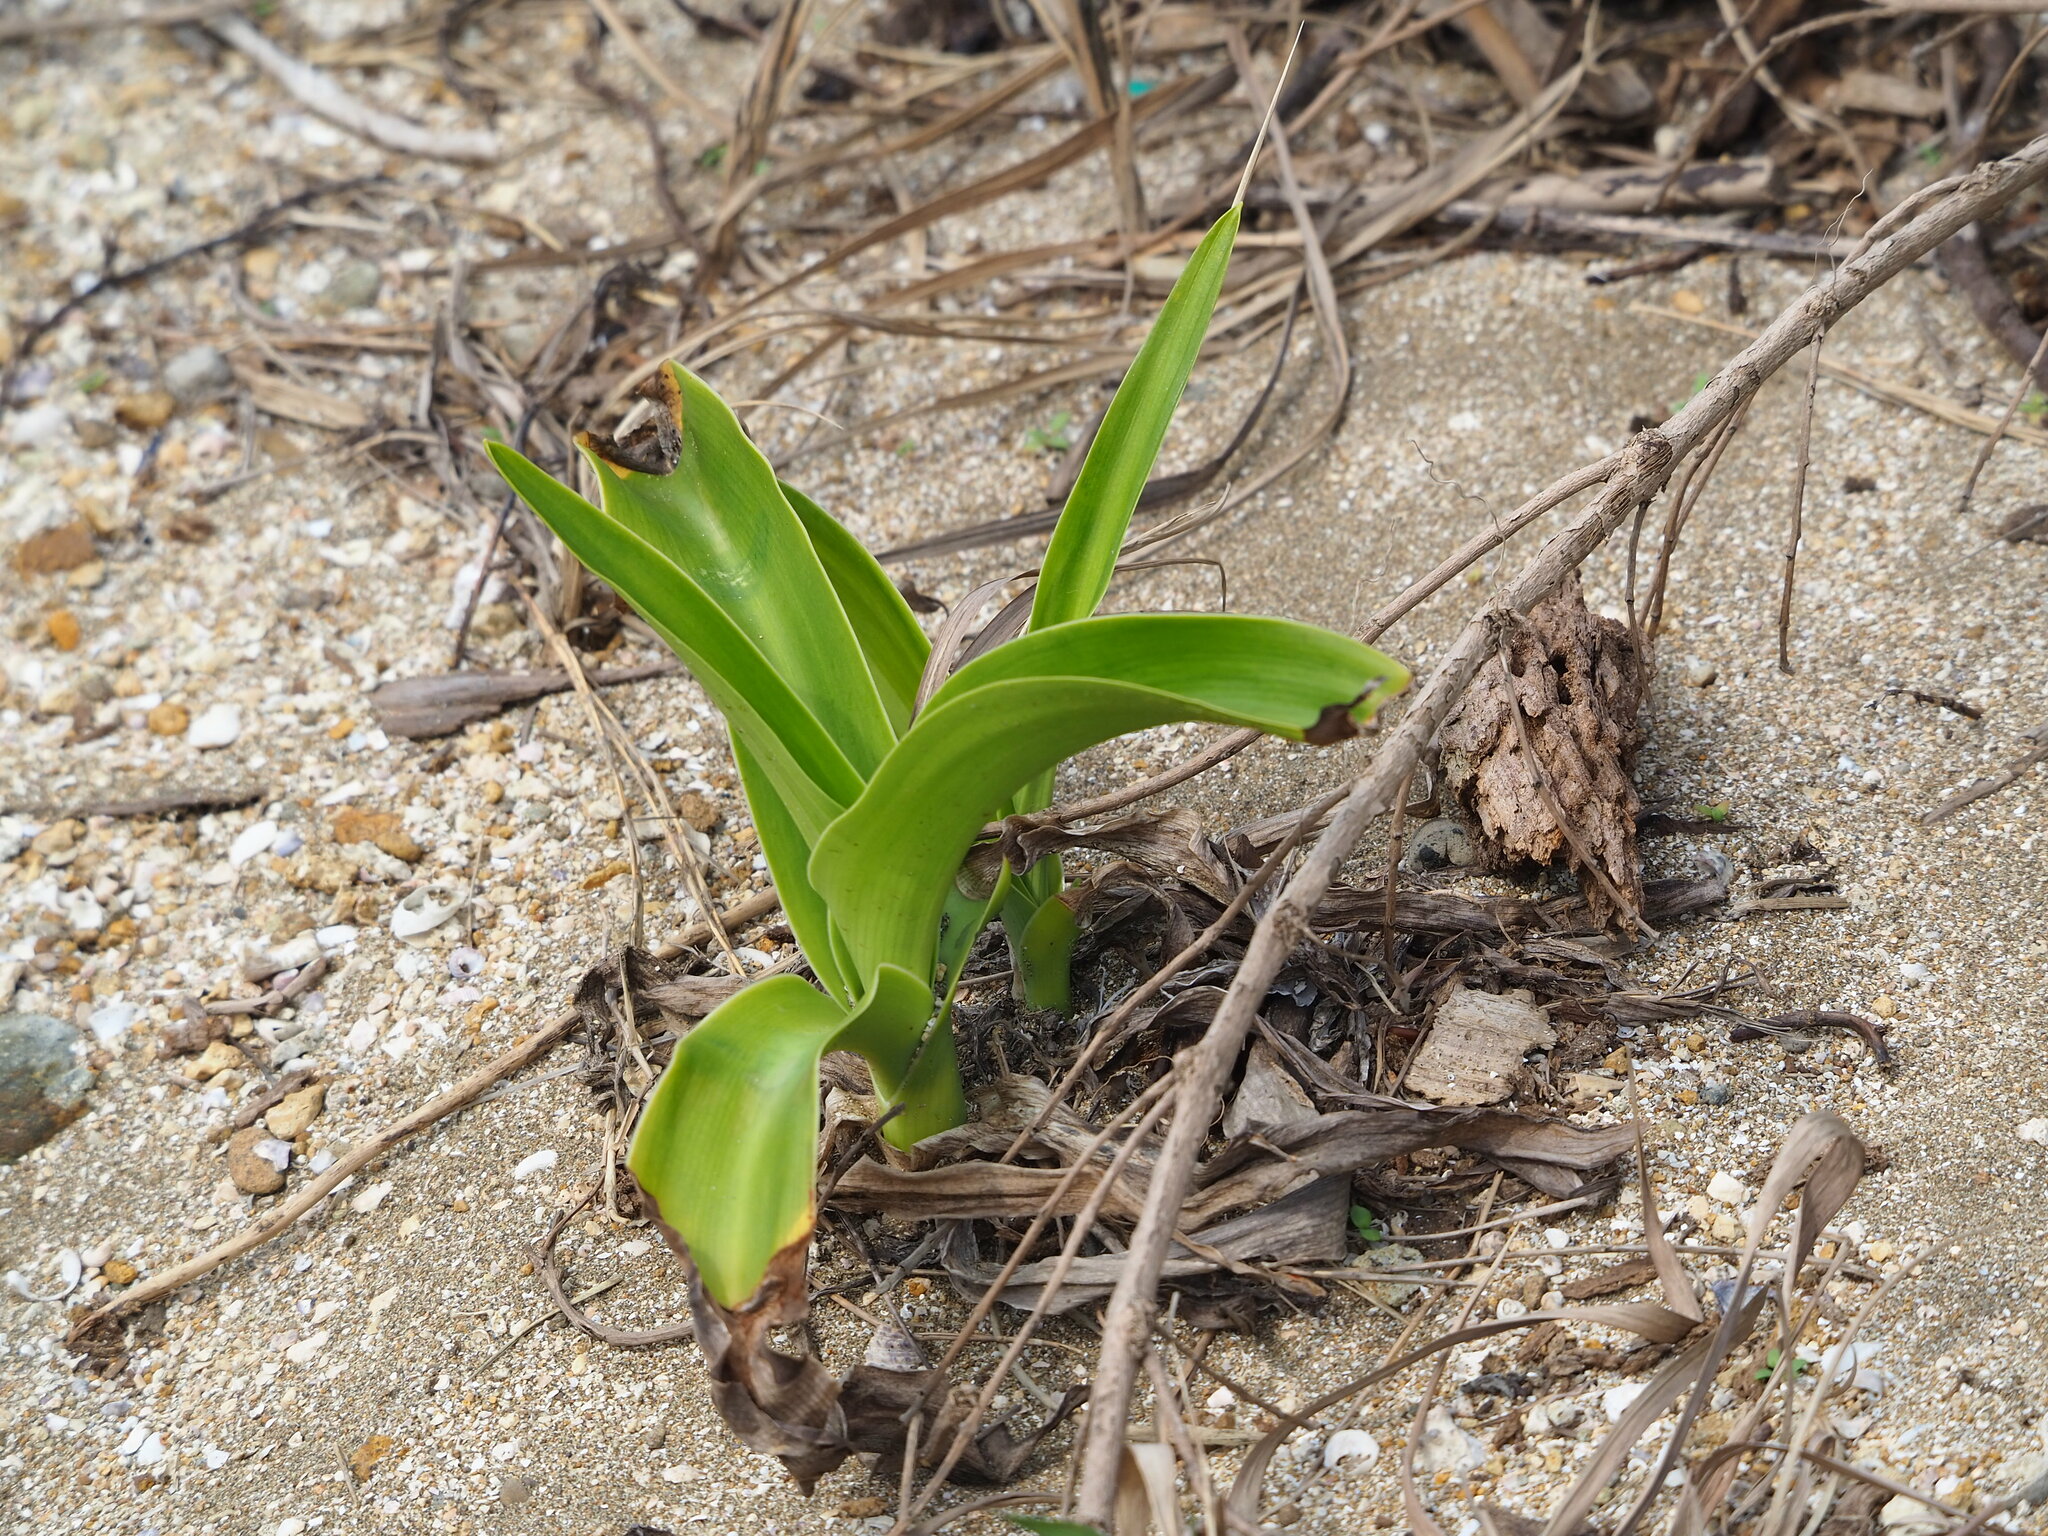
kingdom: Plantae
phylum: Tracheophyta
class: Liliopsida
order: Asparagales
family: Amaryllidaceae
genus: Crinum
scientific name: Crinum asiaticum
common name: Poisonbulb
